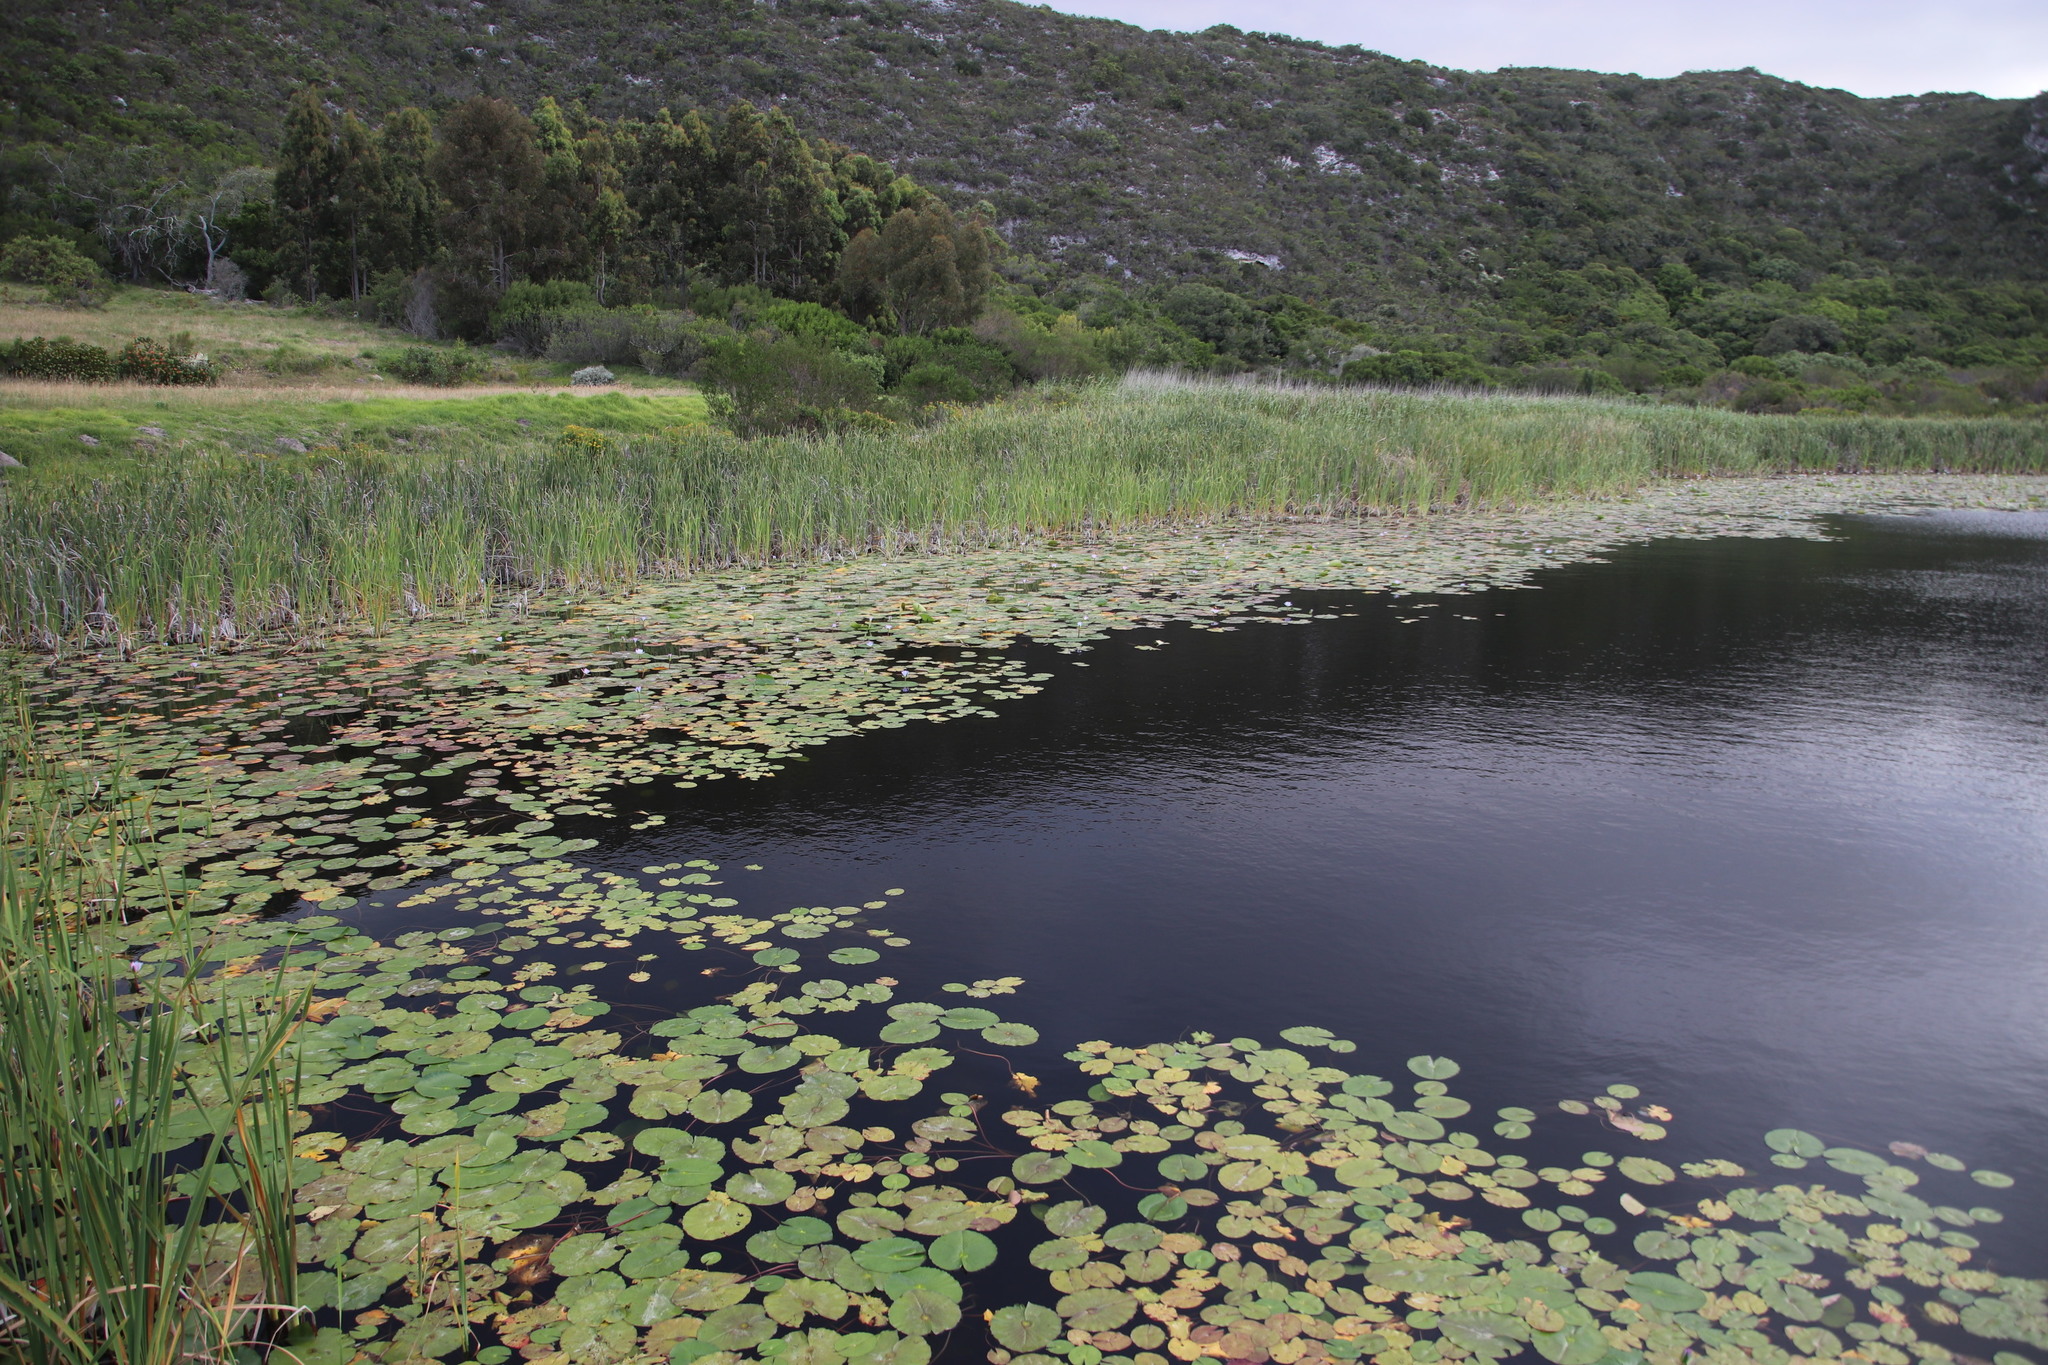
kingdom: Plantae
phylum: Tracheophyta
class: Magnoliopsida
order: Nymphaeales
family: Nymphaeaceae
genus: Nymphaea
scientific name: Nymphaea nouchali
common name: Blue lotus
